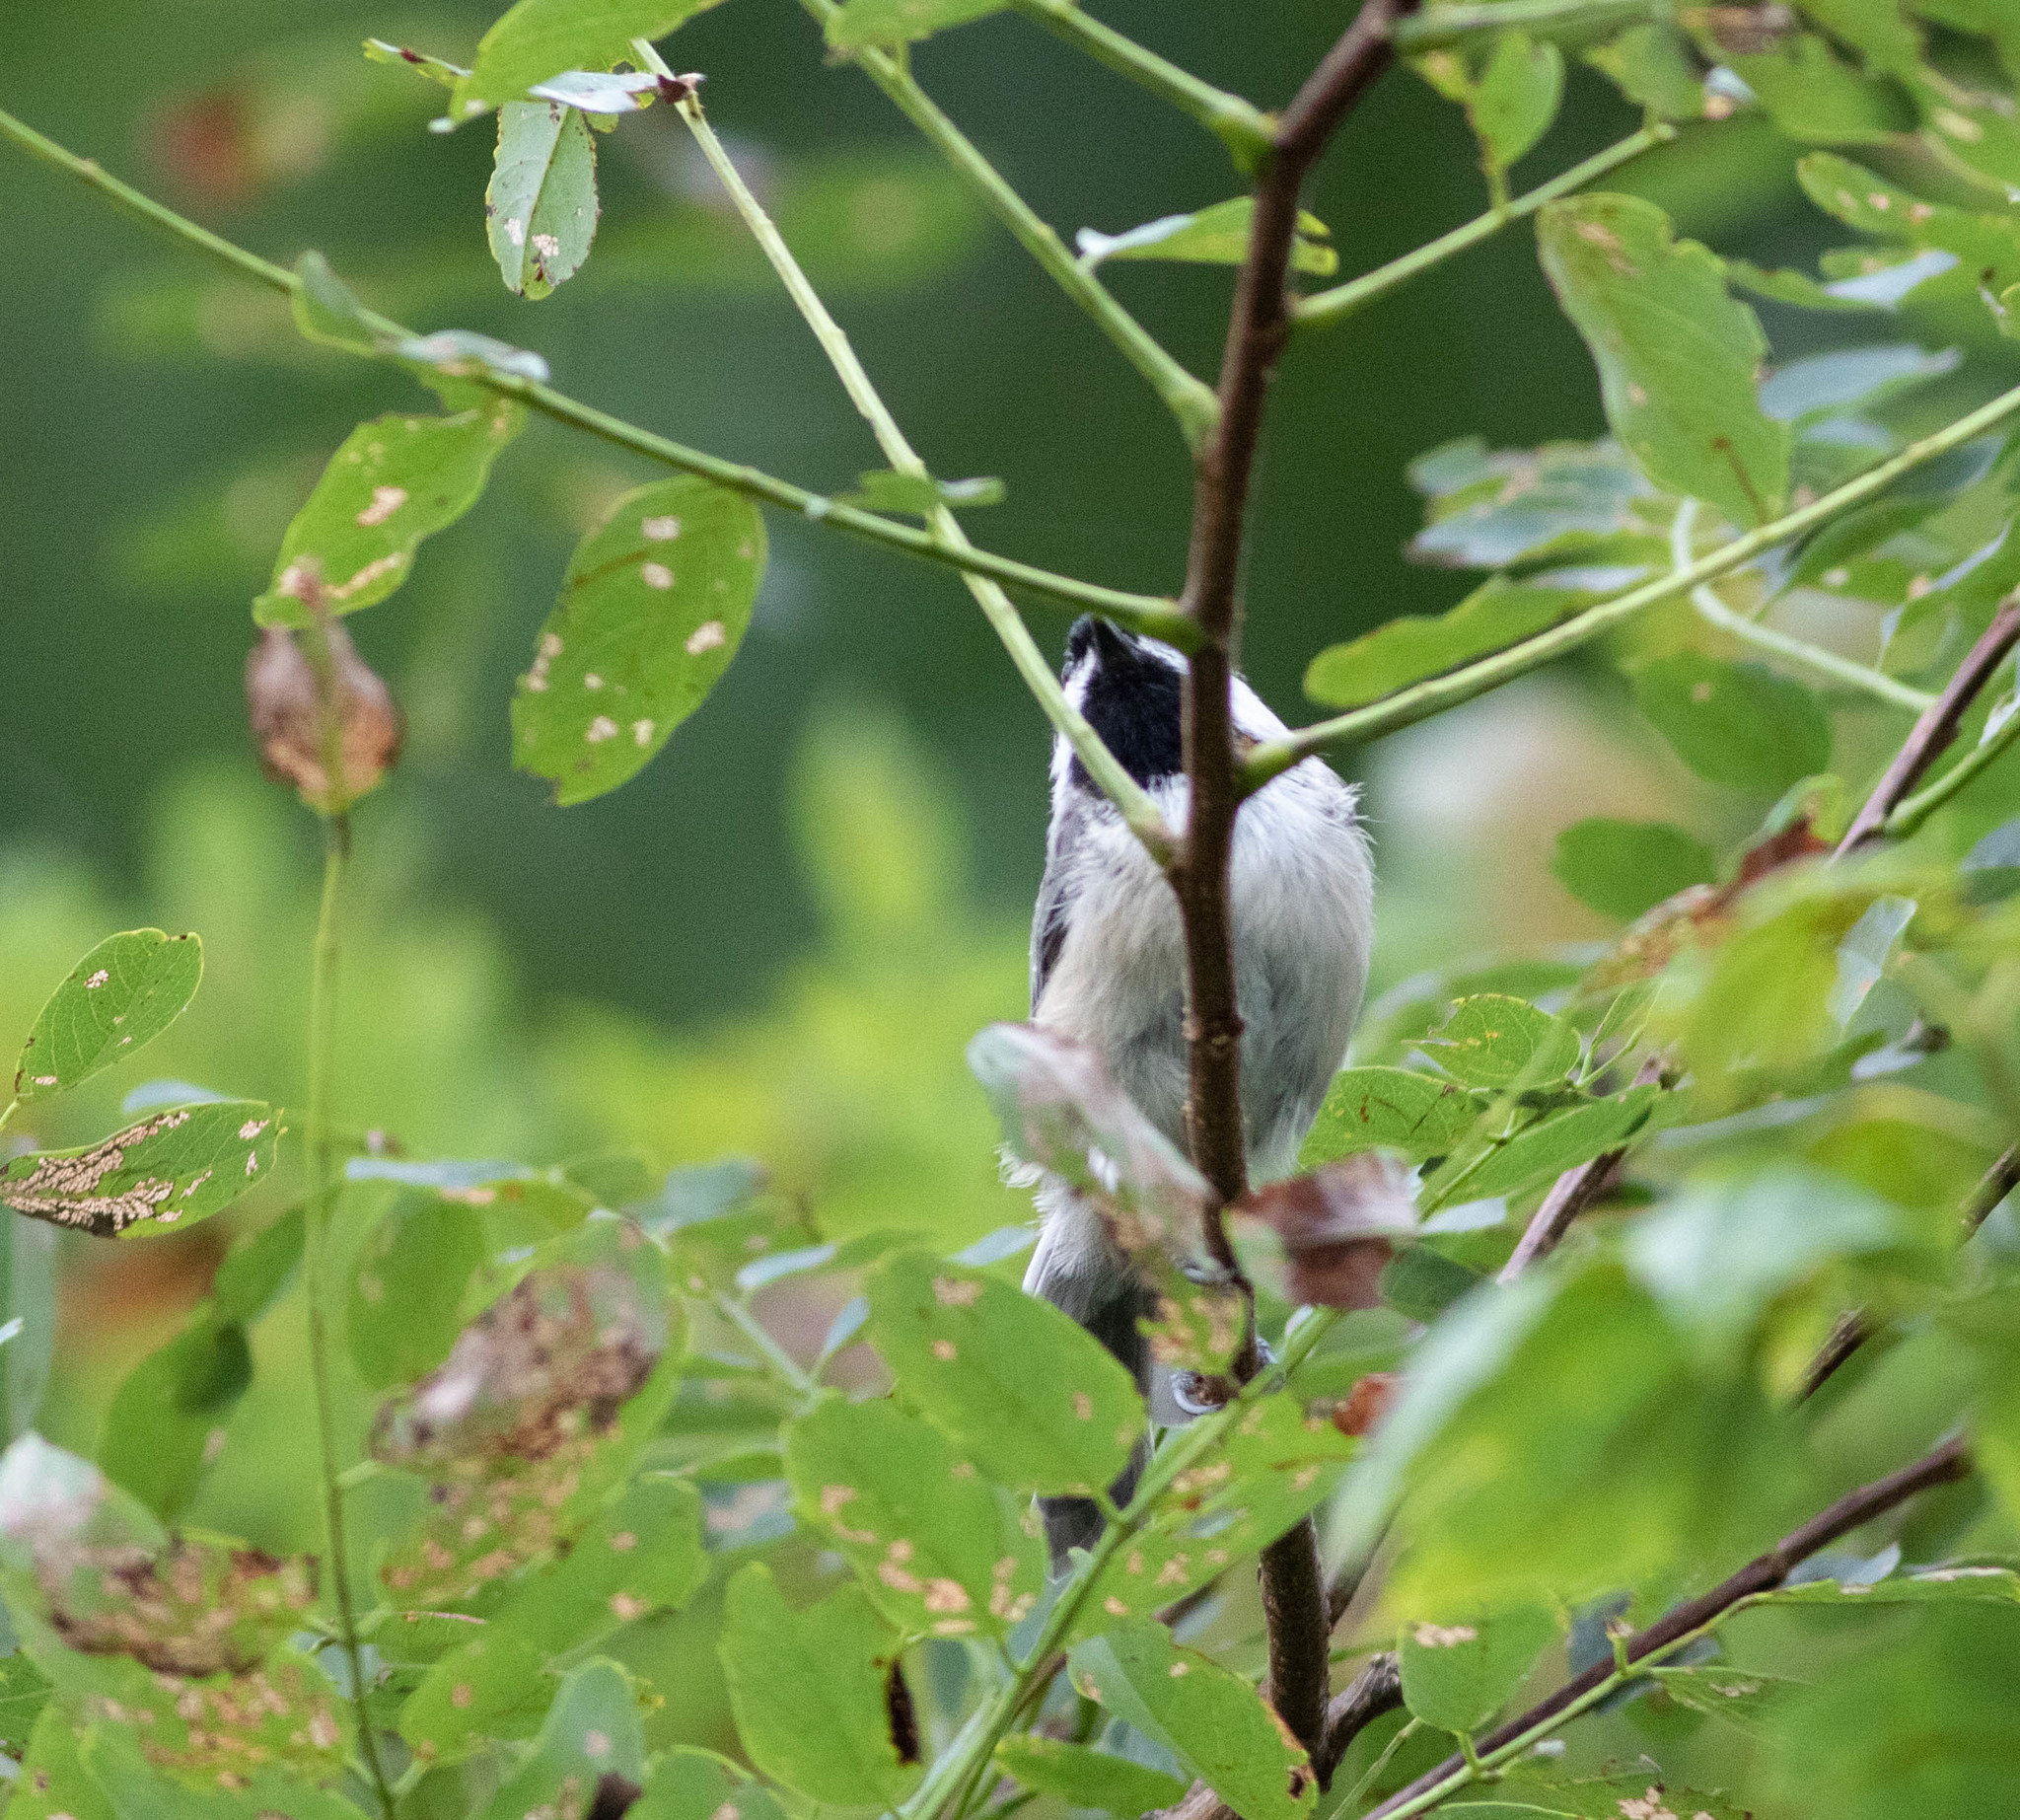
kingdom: Animalia
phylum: Chordata
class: Aves
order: Passeriformes
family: Paridae
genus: Poecile
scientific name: Poecile carolinensis
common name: Carolina chickadee
